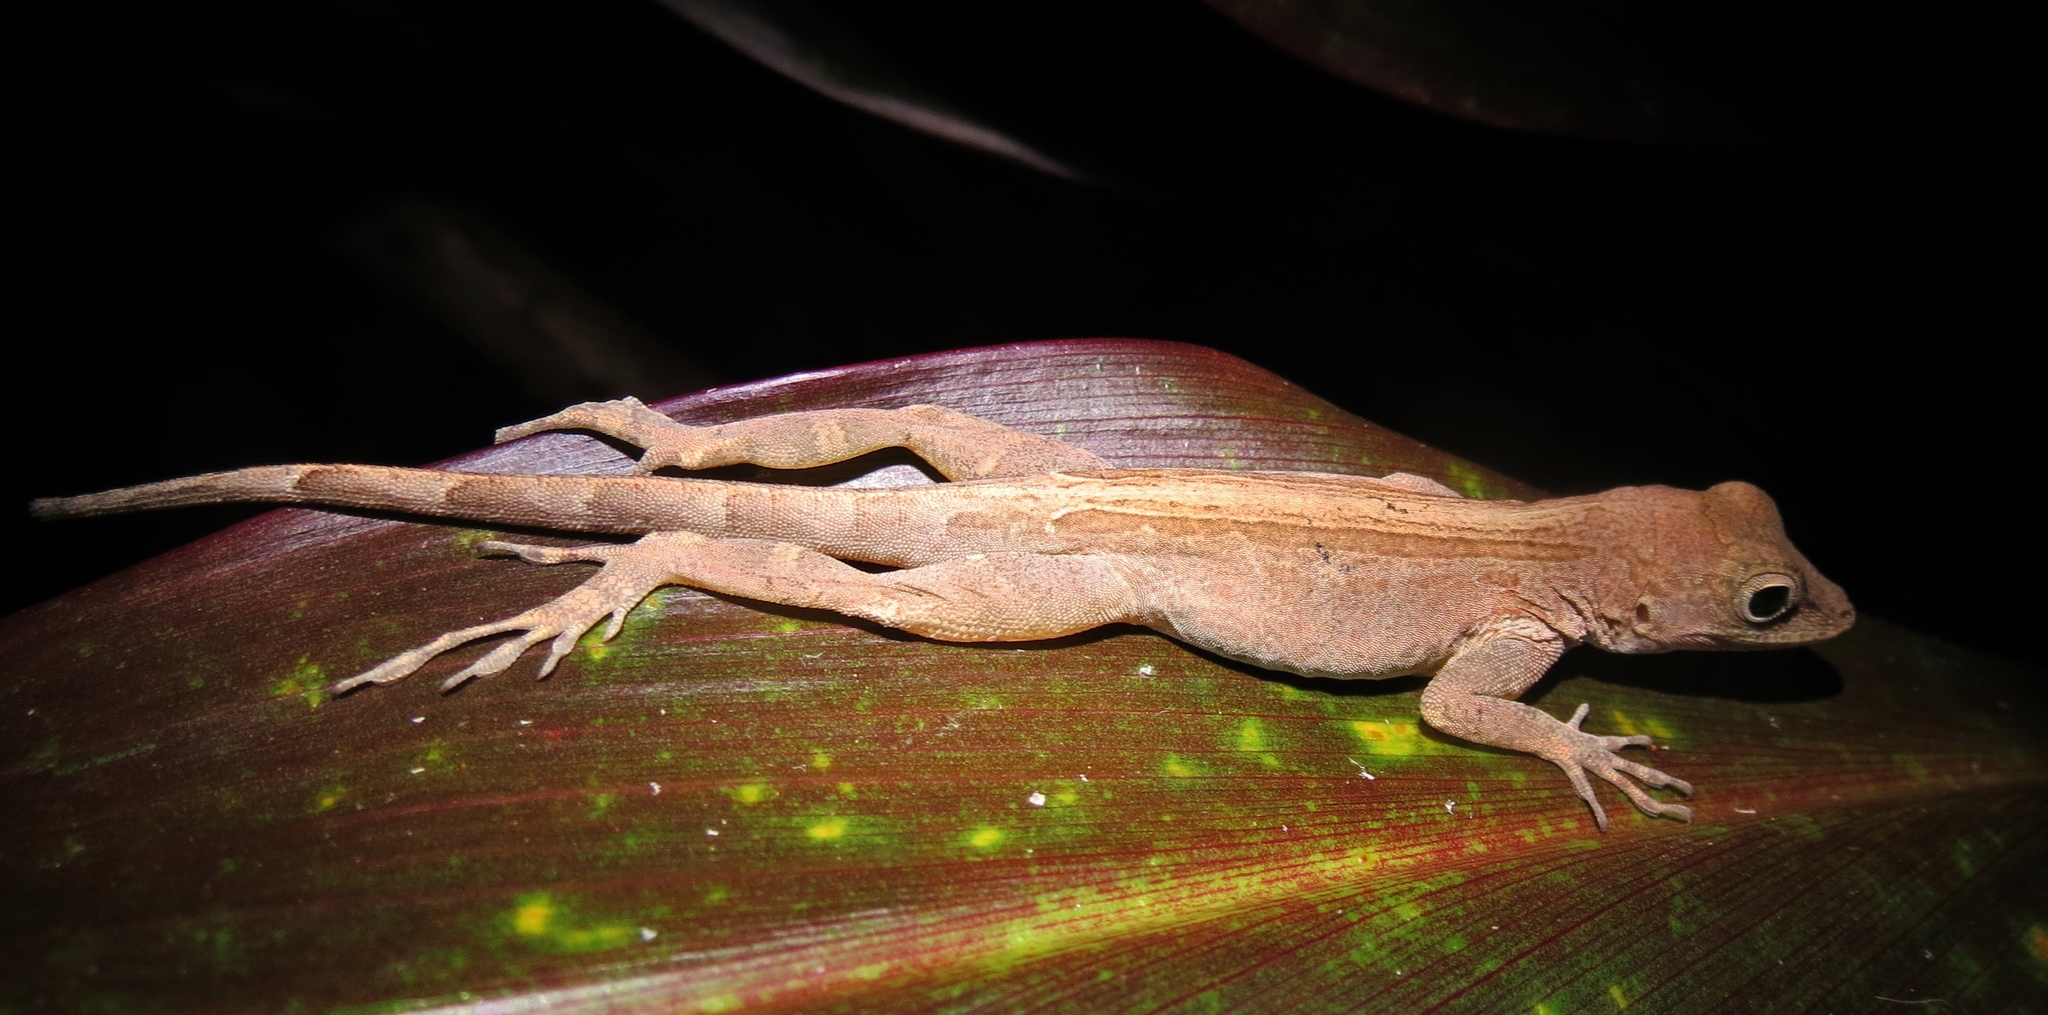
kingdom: Animalia
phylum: Chordata
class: Squamata
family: Dactyloidae
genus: Anolis
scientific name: Anolis cristatellus
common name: Crested anole
